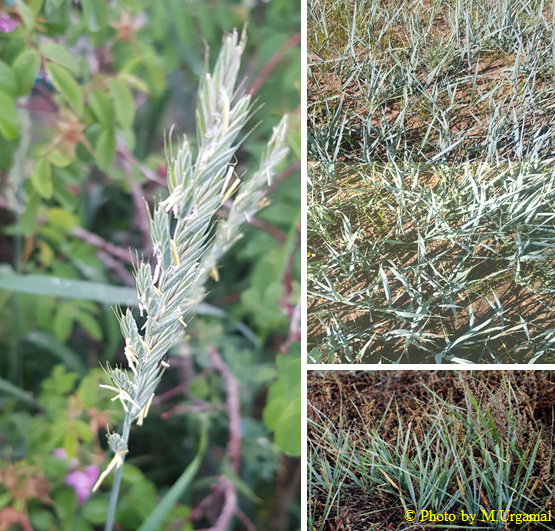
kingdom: Plantae
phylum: Tracheophyta
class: Liliopsida
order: Poales
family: Poaceae
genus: Leymus
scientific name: Leymus chinensis
